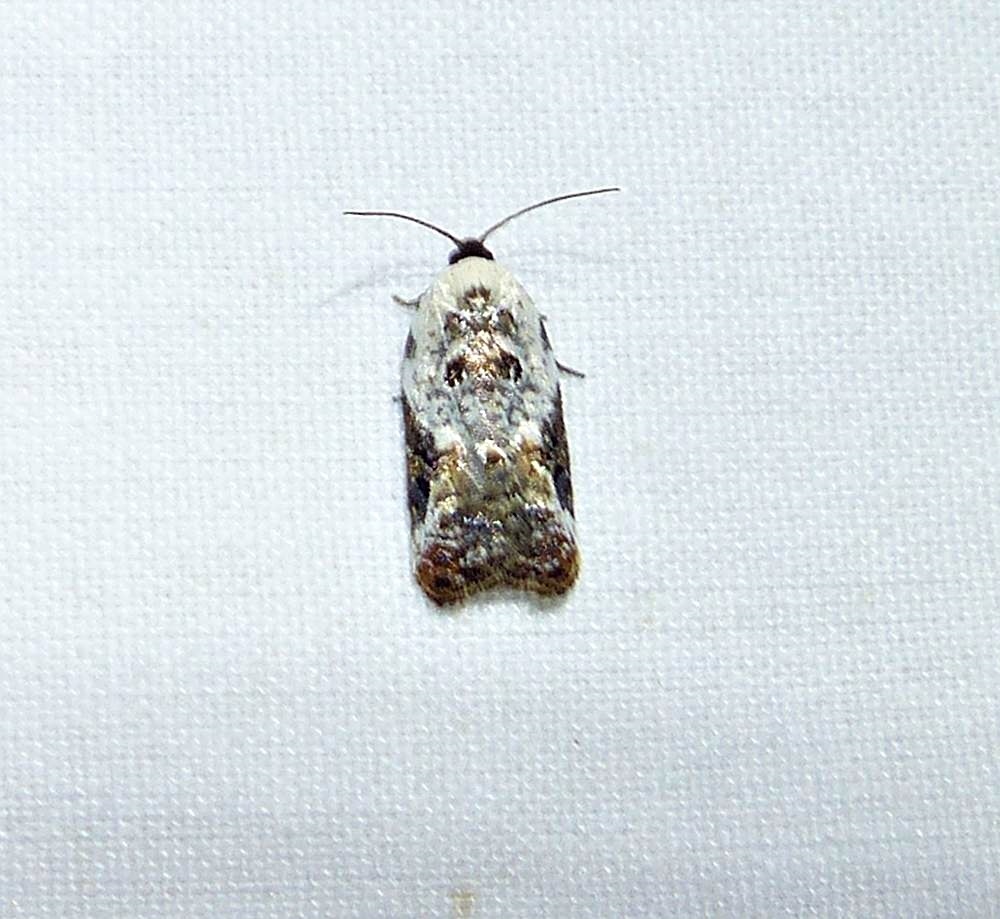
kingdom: Animalia
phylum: Arthropoda
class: Insecta
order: Lepidoptera
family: Tortricidae
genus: Acleris
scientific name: Acleris nivisellana
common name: Snowy-shouldered acleris moth
